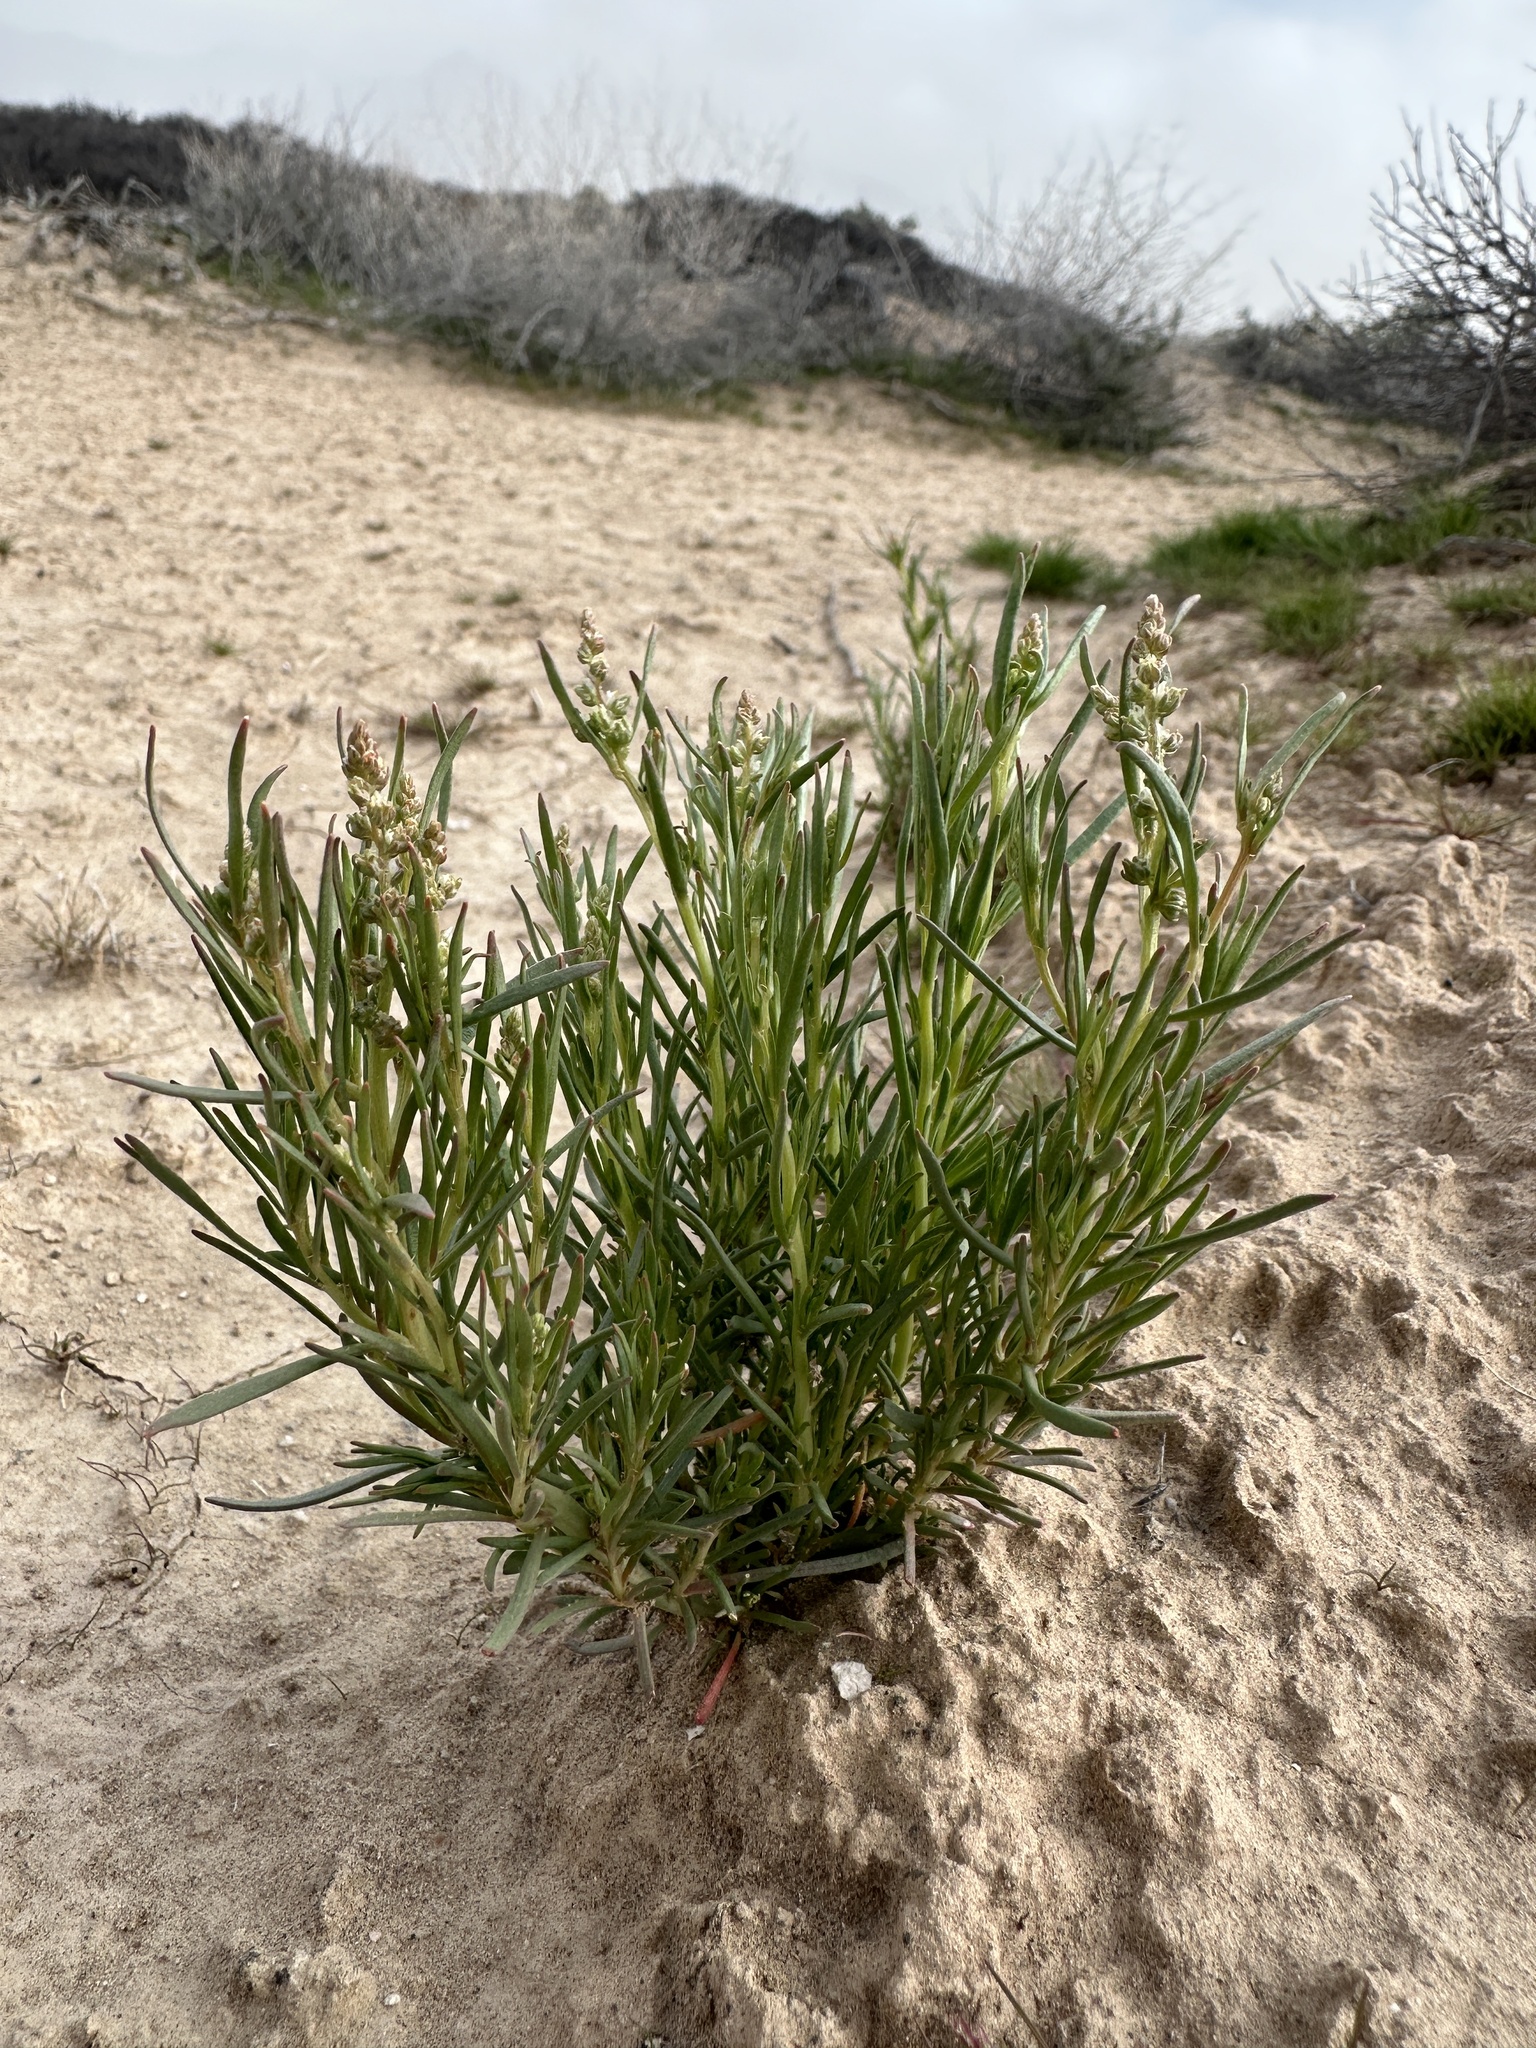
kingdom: Plantae
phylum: Tracheophyta
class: Magnoliopsida
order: Brassicales
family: Resedaceae
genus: Oligomeris
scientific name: Oligomeris linifolia
